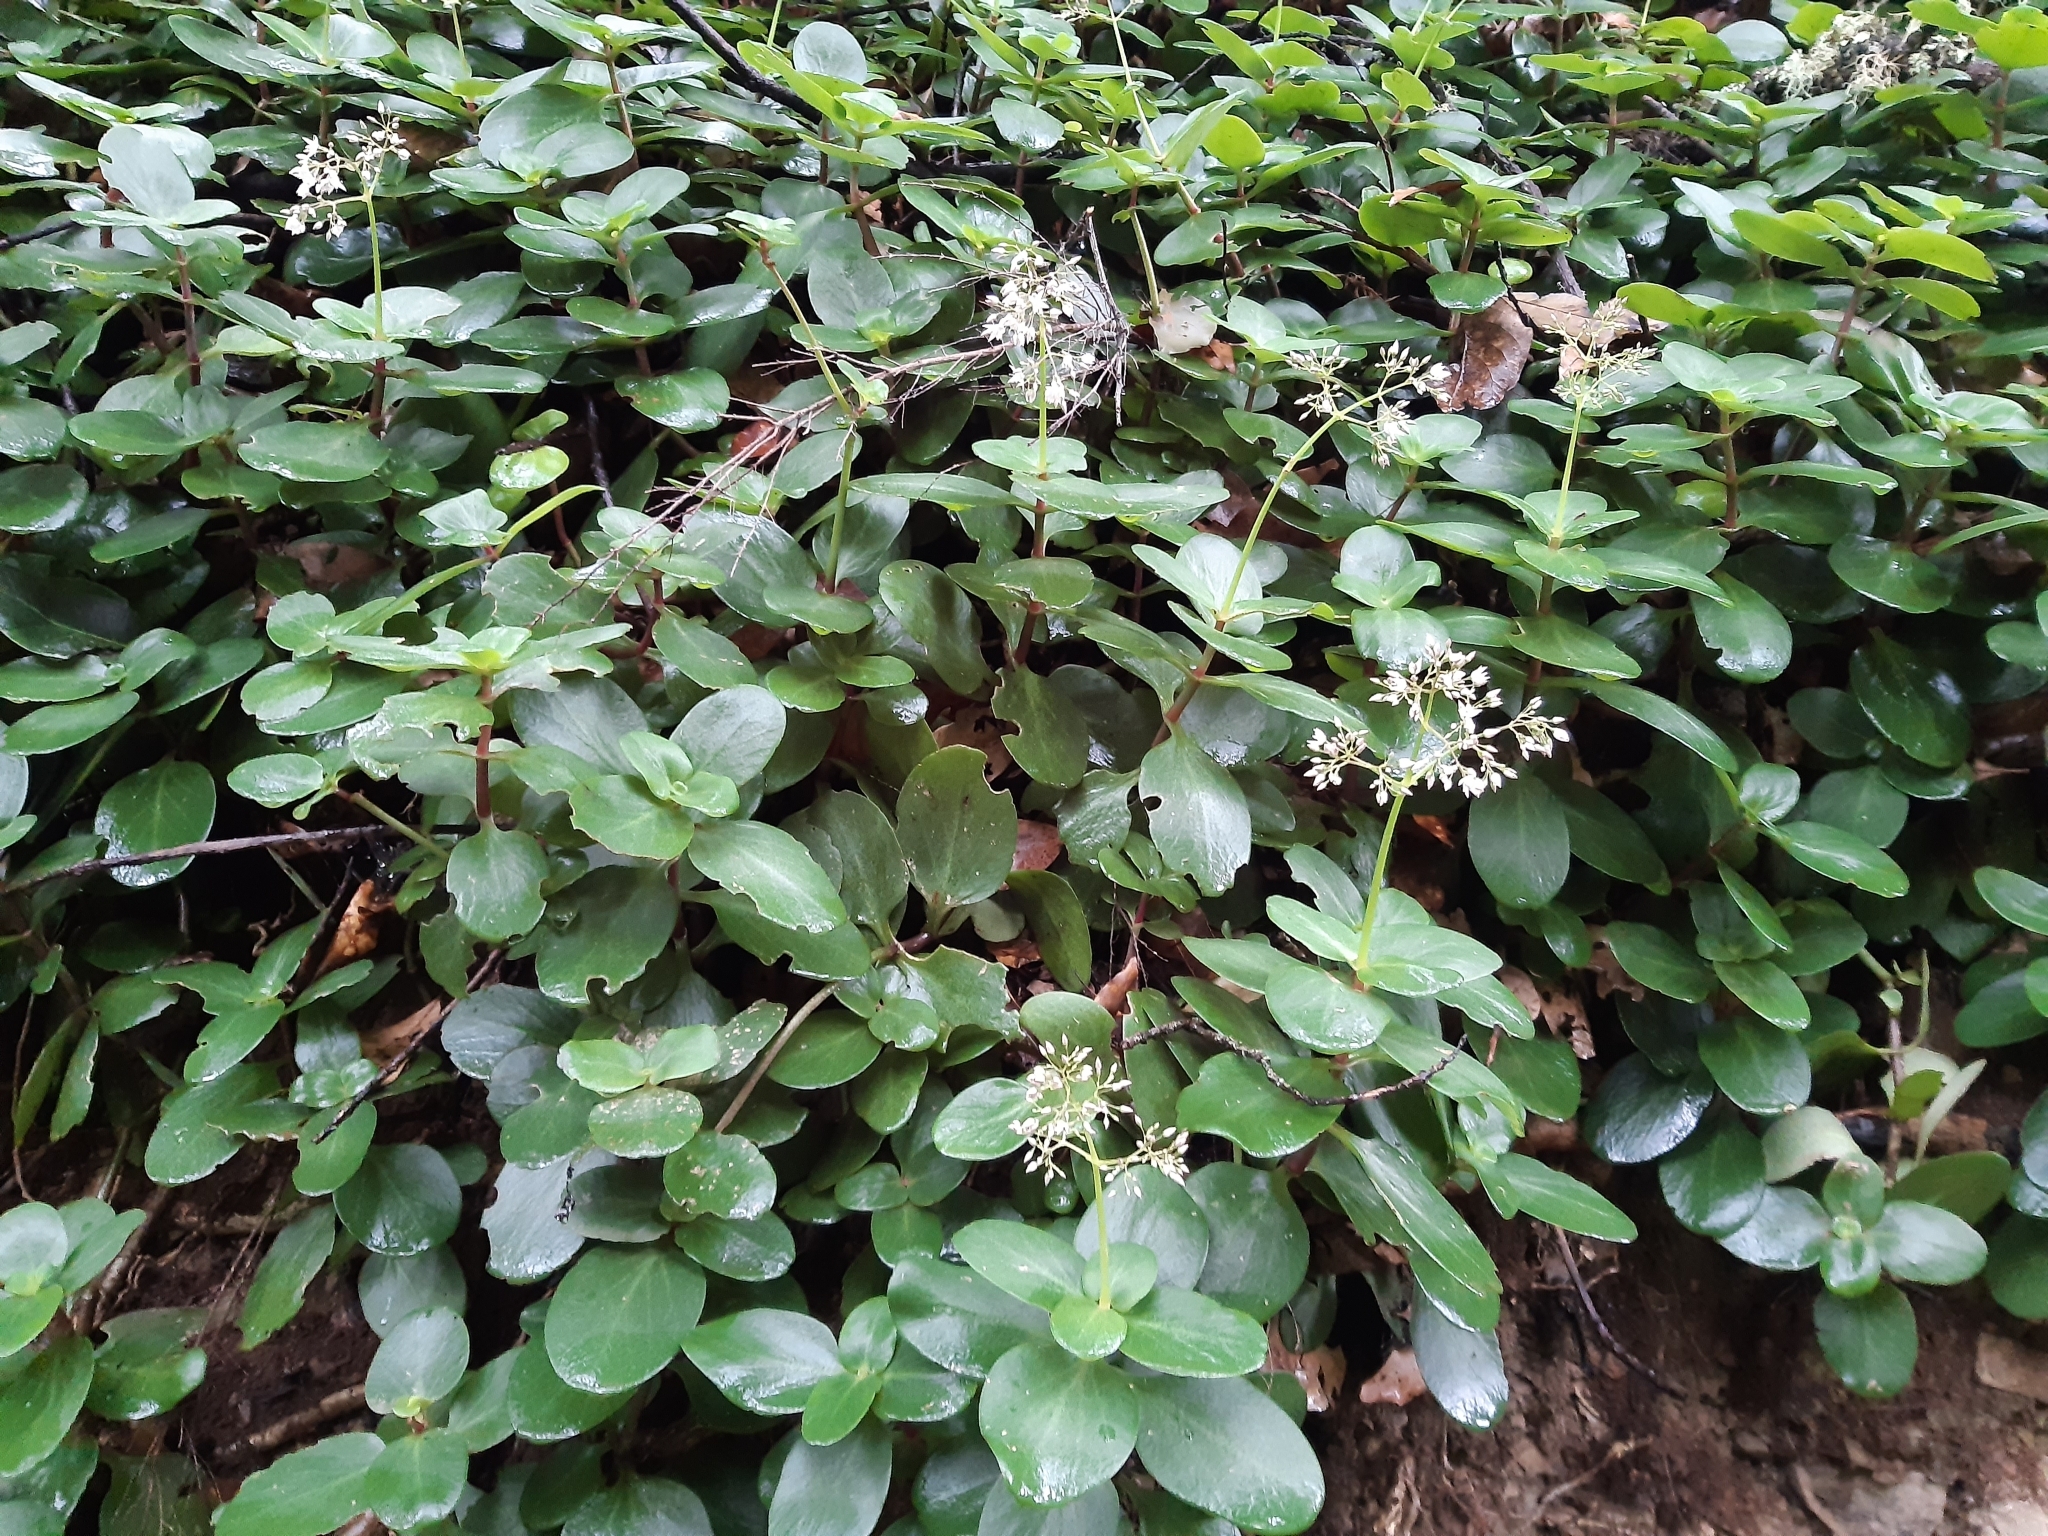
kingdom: Plantae
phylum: Tracheophyta
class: Magnoliopsida
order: Saxifragales
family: Crassulaceae
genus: Crassula
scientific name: Crassula multicava
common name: Cape province pygmyweed
